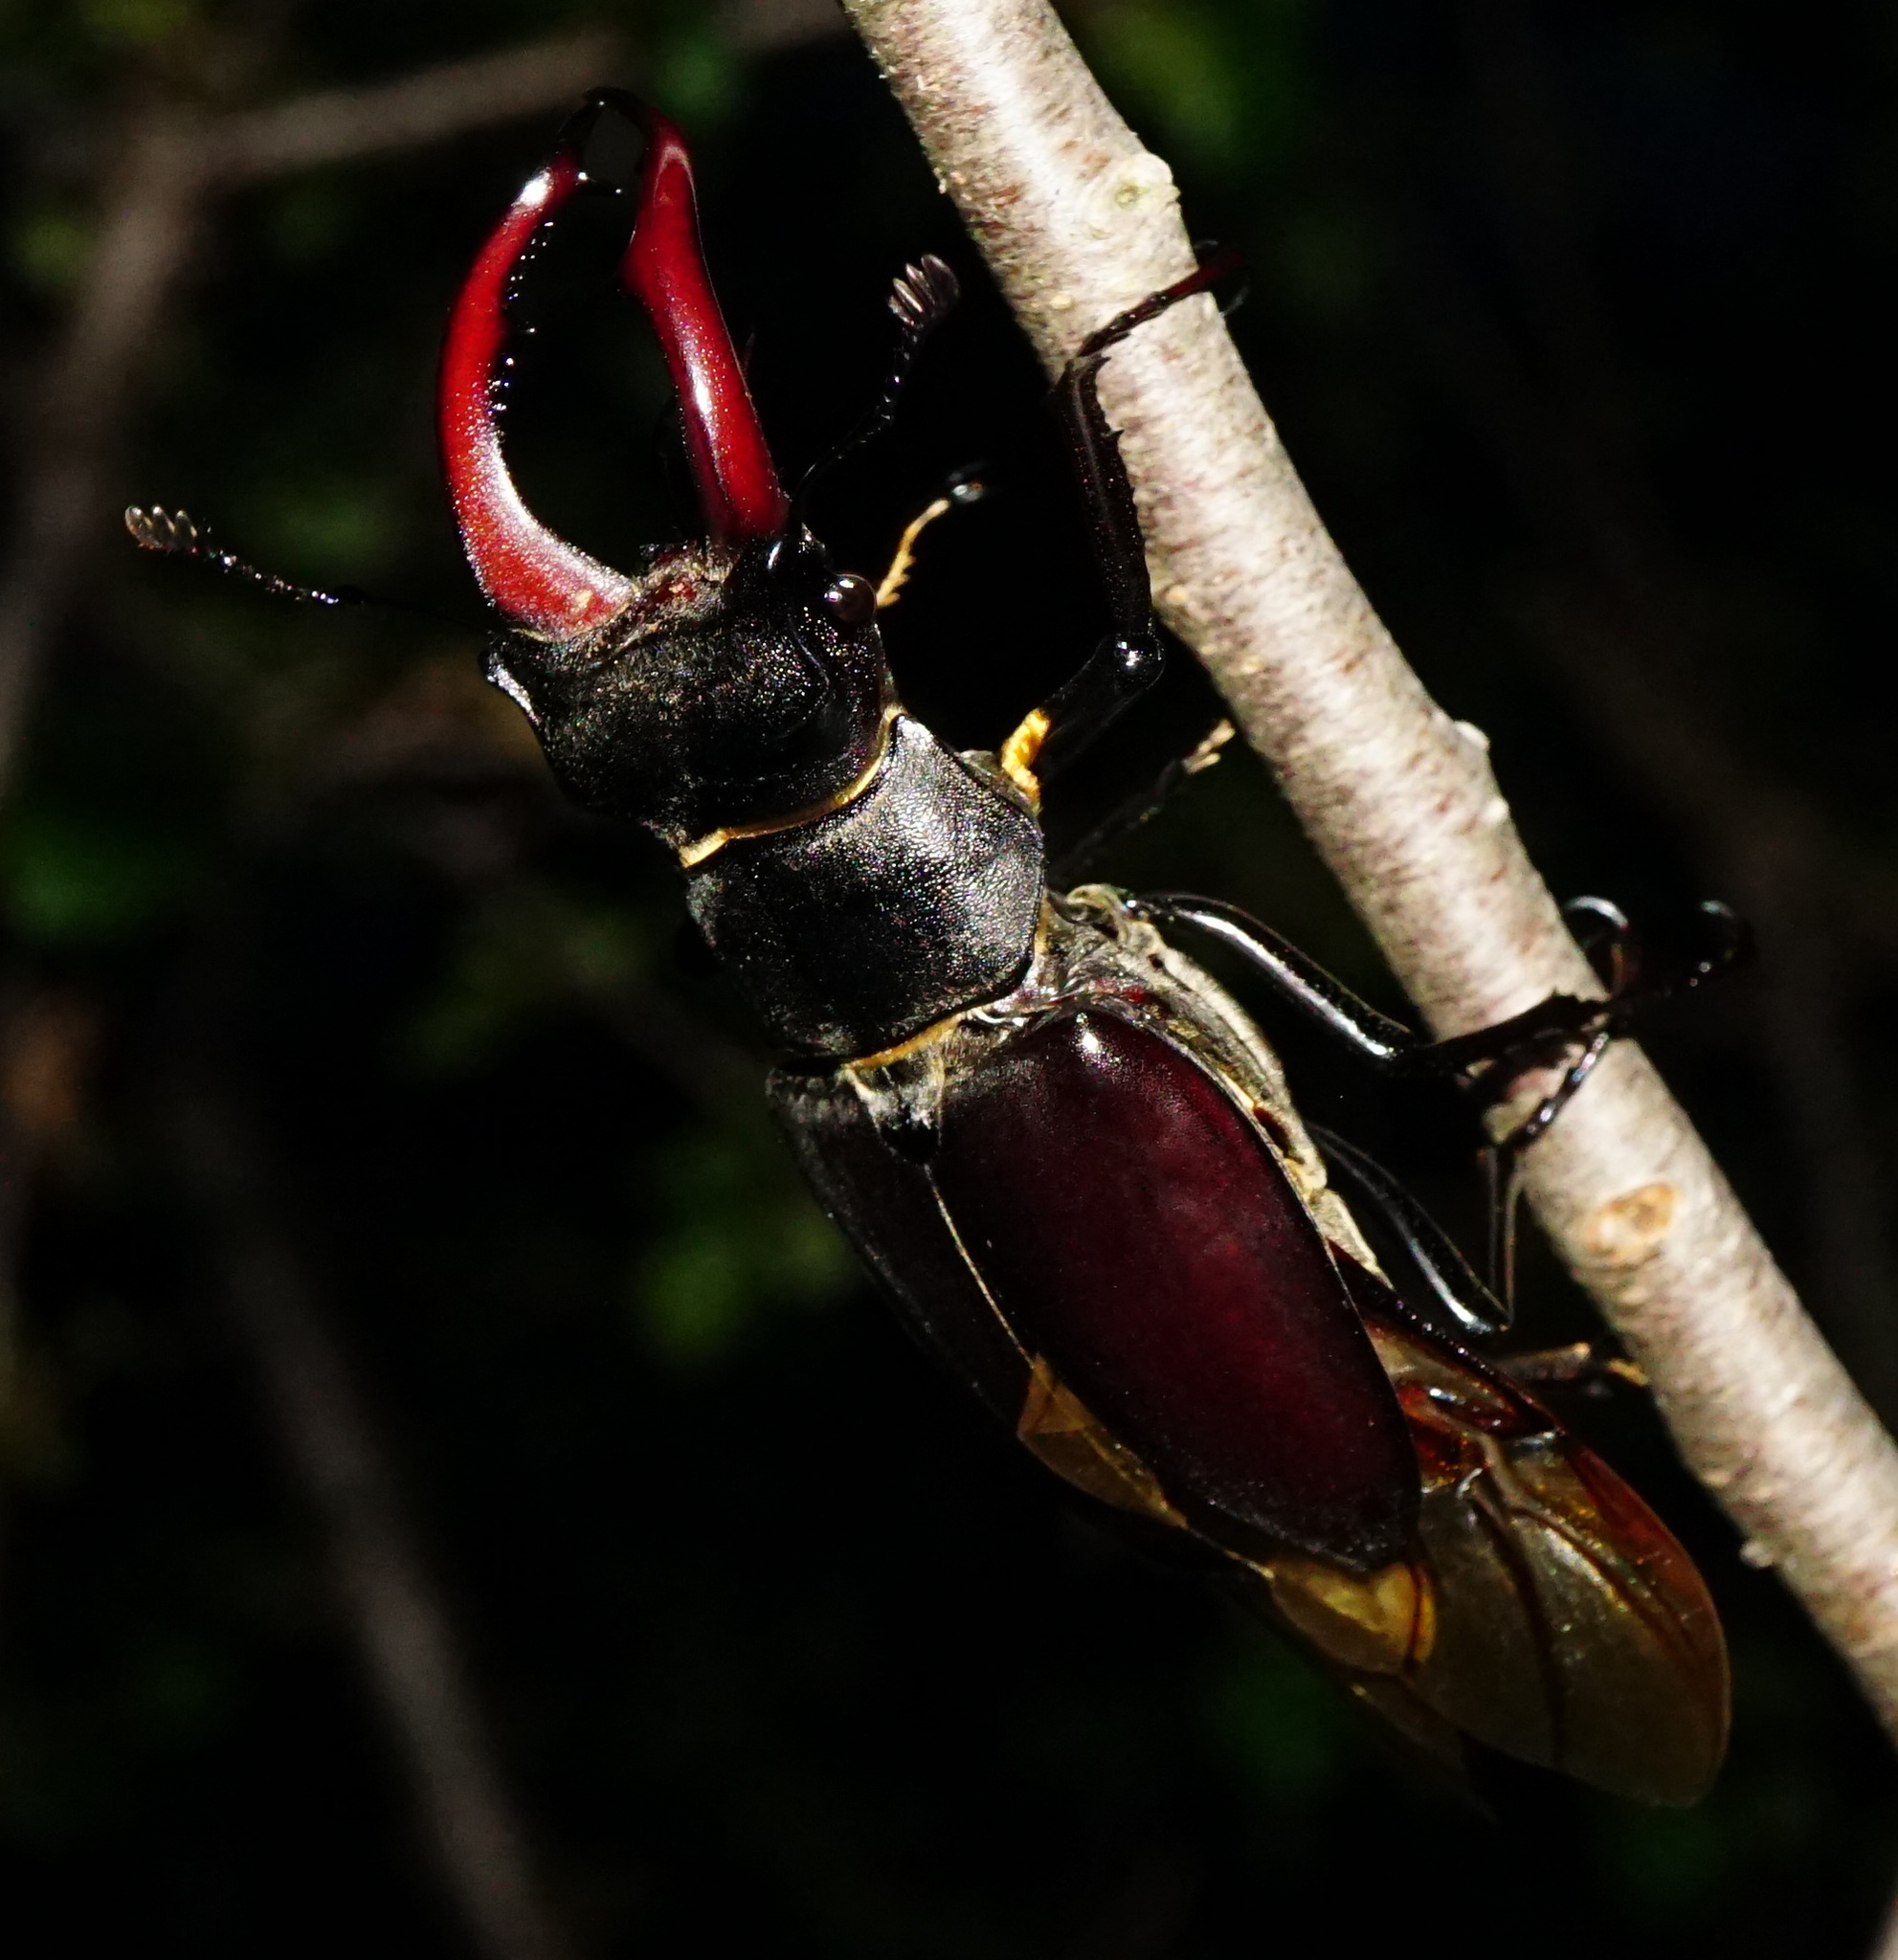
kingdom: Animalia
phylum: Arthropoda
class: Insecta
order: Coleoptera
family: Lucanidae
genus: Lucanus
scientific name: Lucanus cervus
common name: Stag beetle
